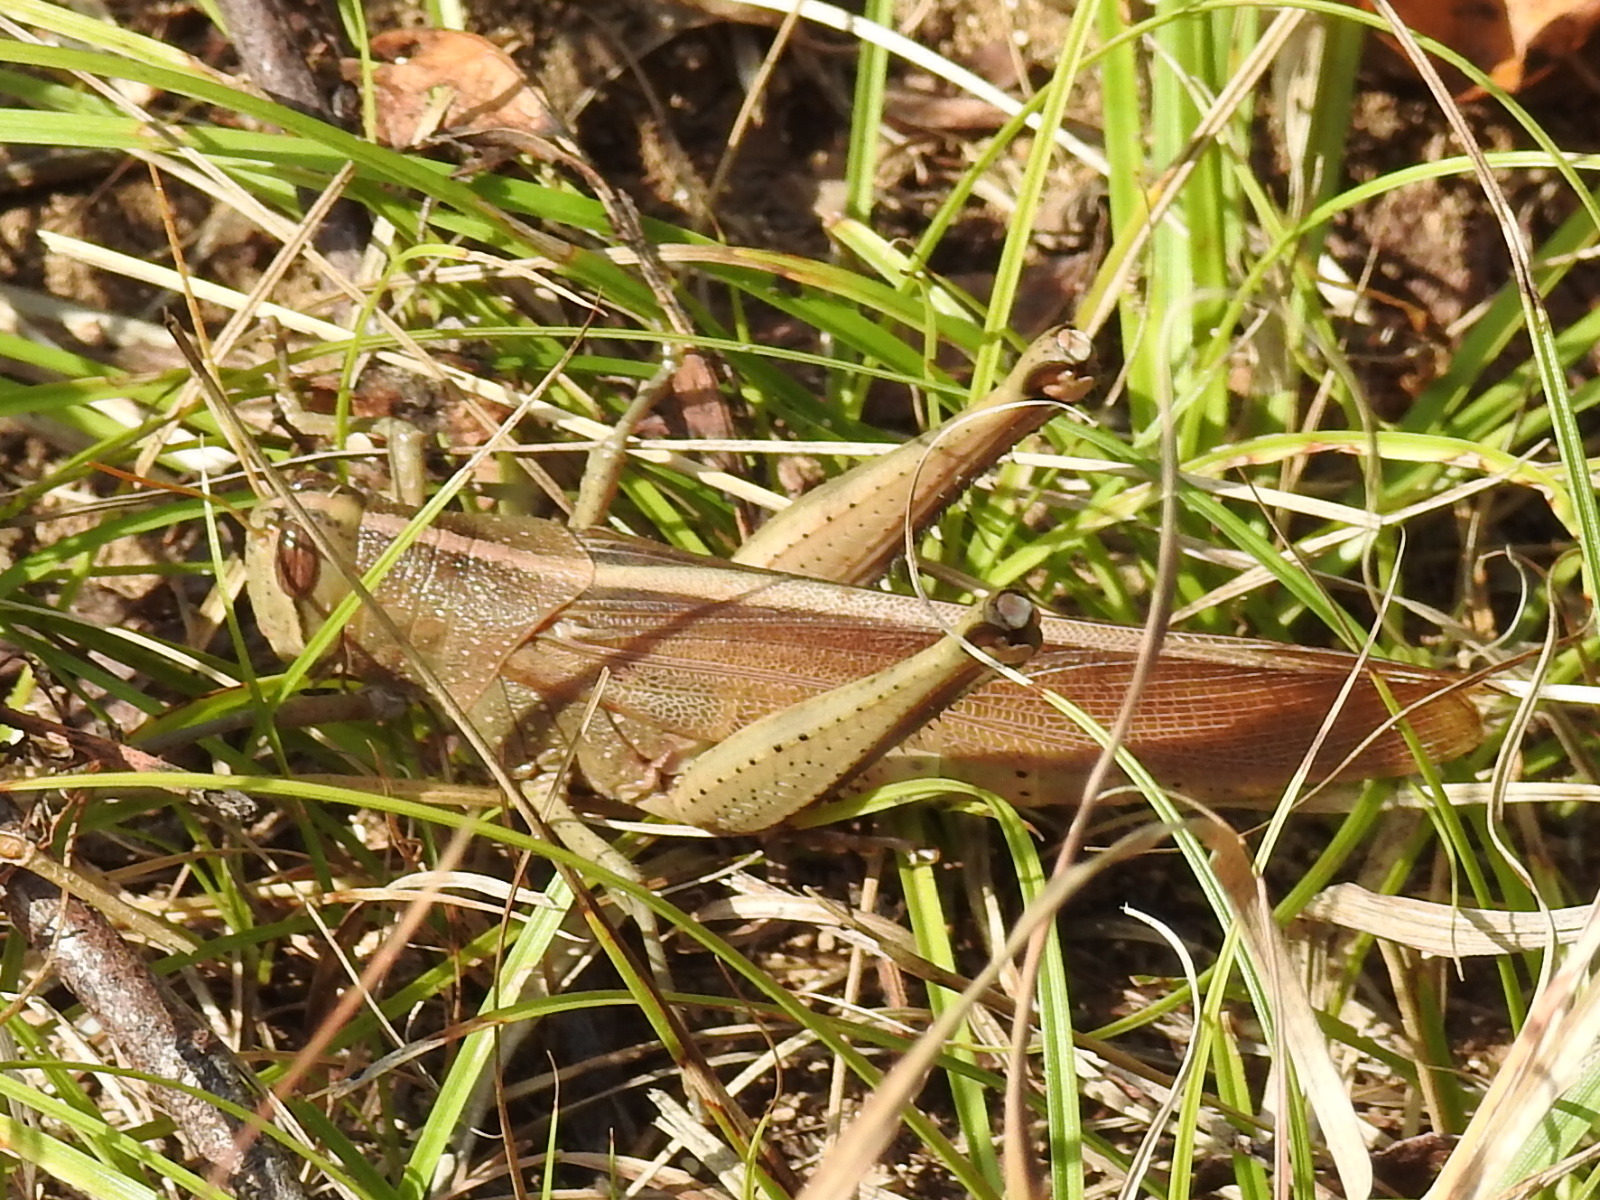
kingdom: Animalia
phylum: Arthropoda
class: Insecta
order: Orthoptera
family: Acrididae
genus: Schistocerca
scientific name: Schistocerca lineata
